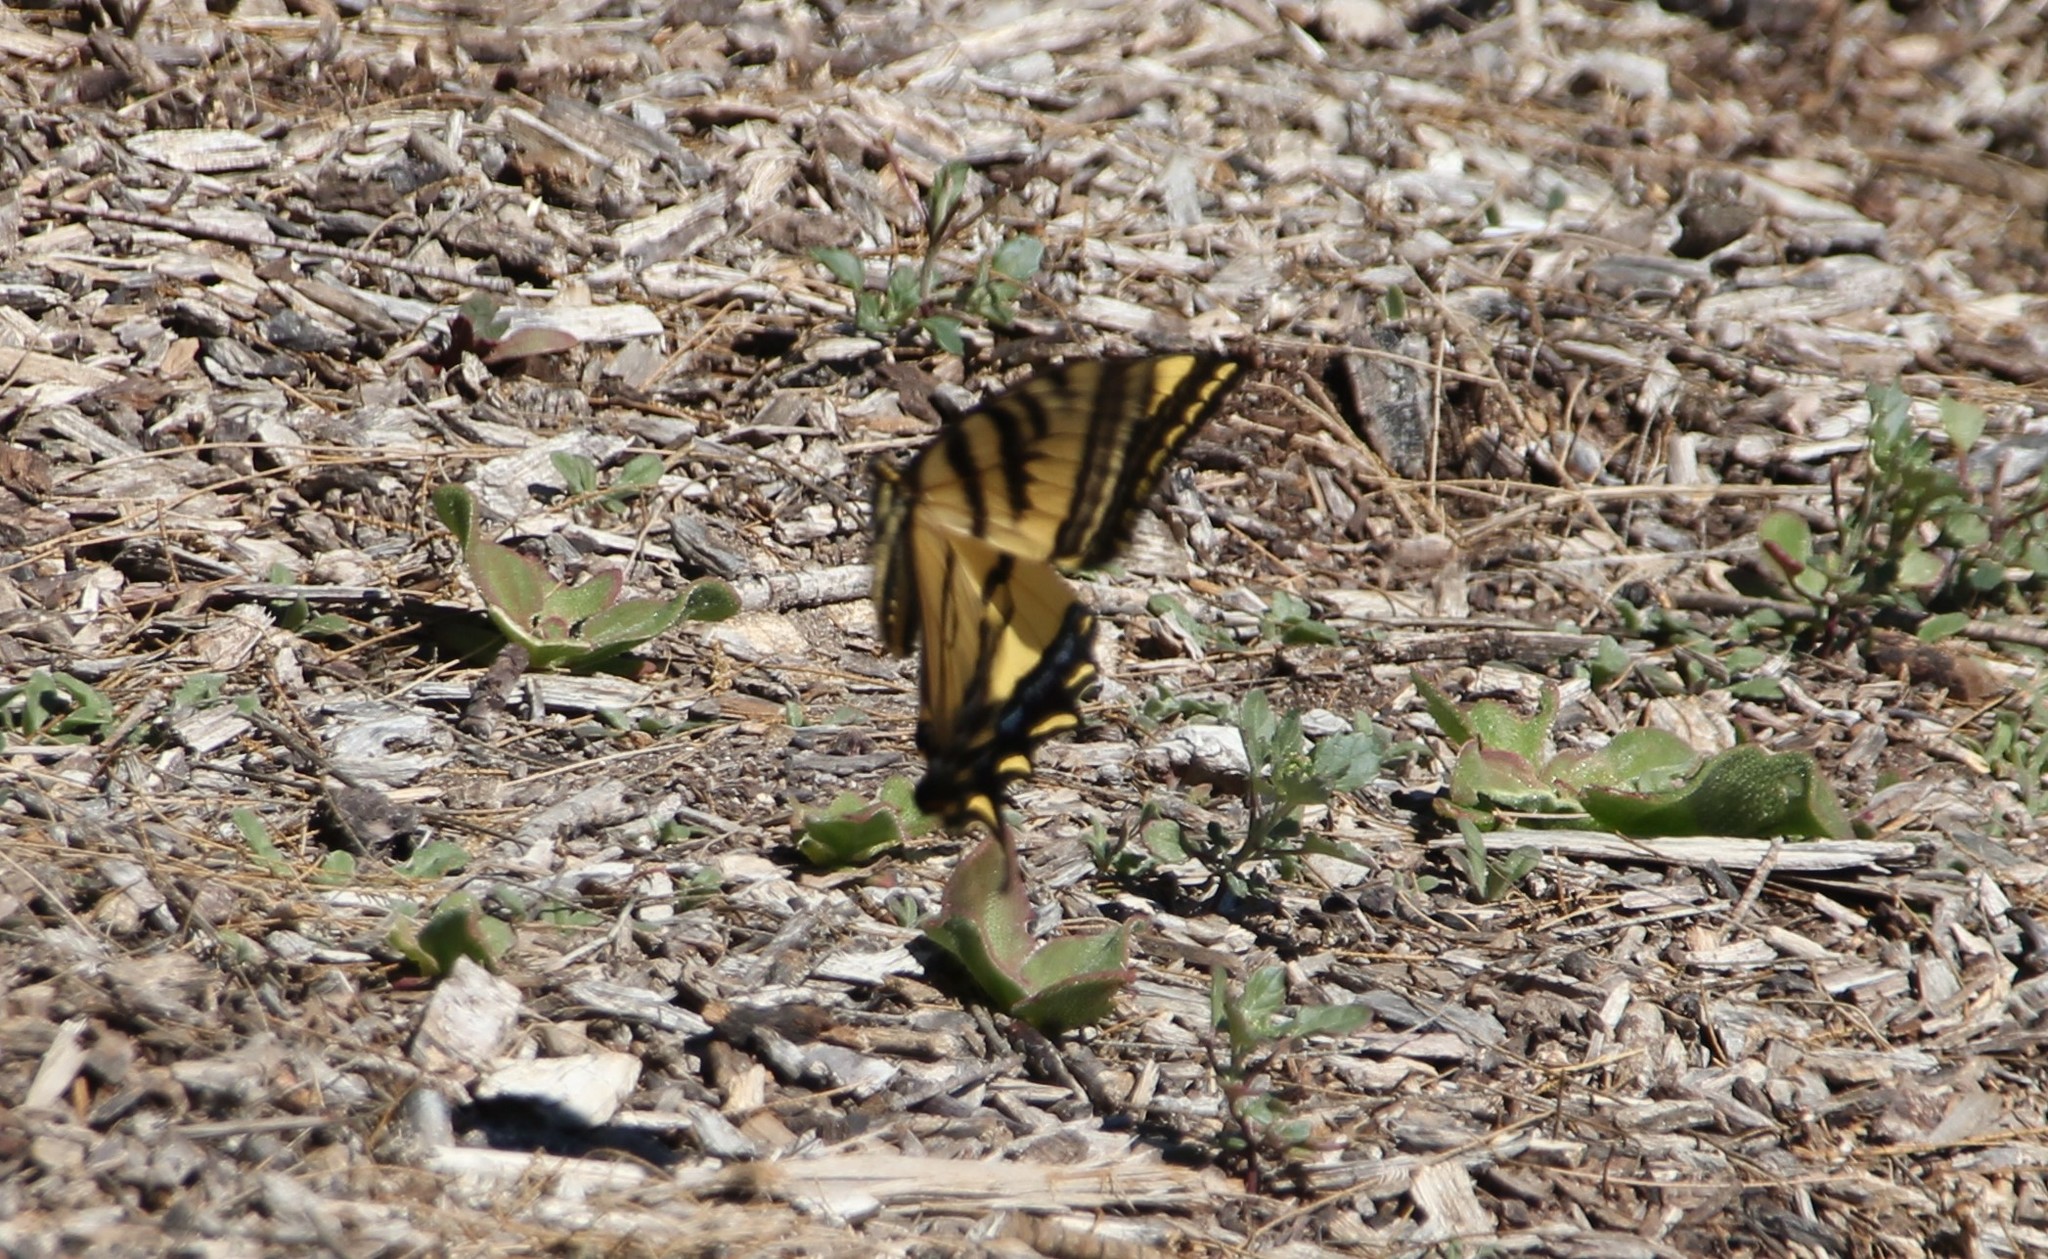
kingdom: Animalia
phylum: Arthropoda
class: Insecta
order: Lepidoptera
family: Papilionidae
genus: Papilio
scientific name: Papilio rutulus
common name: Western tiger swallowtail
